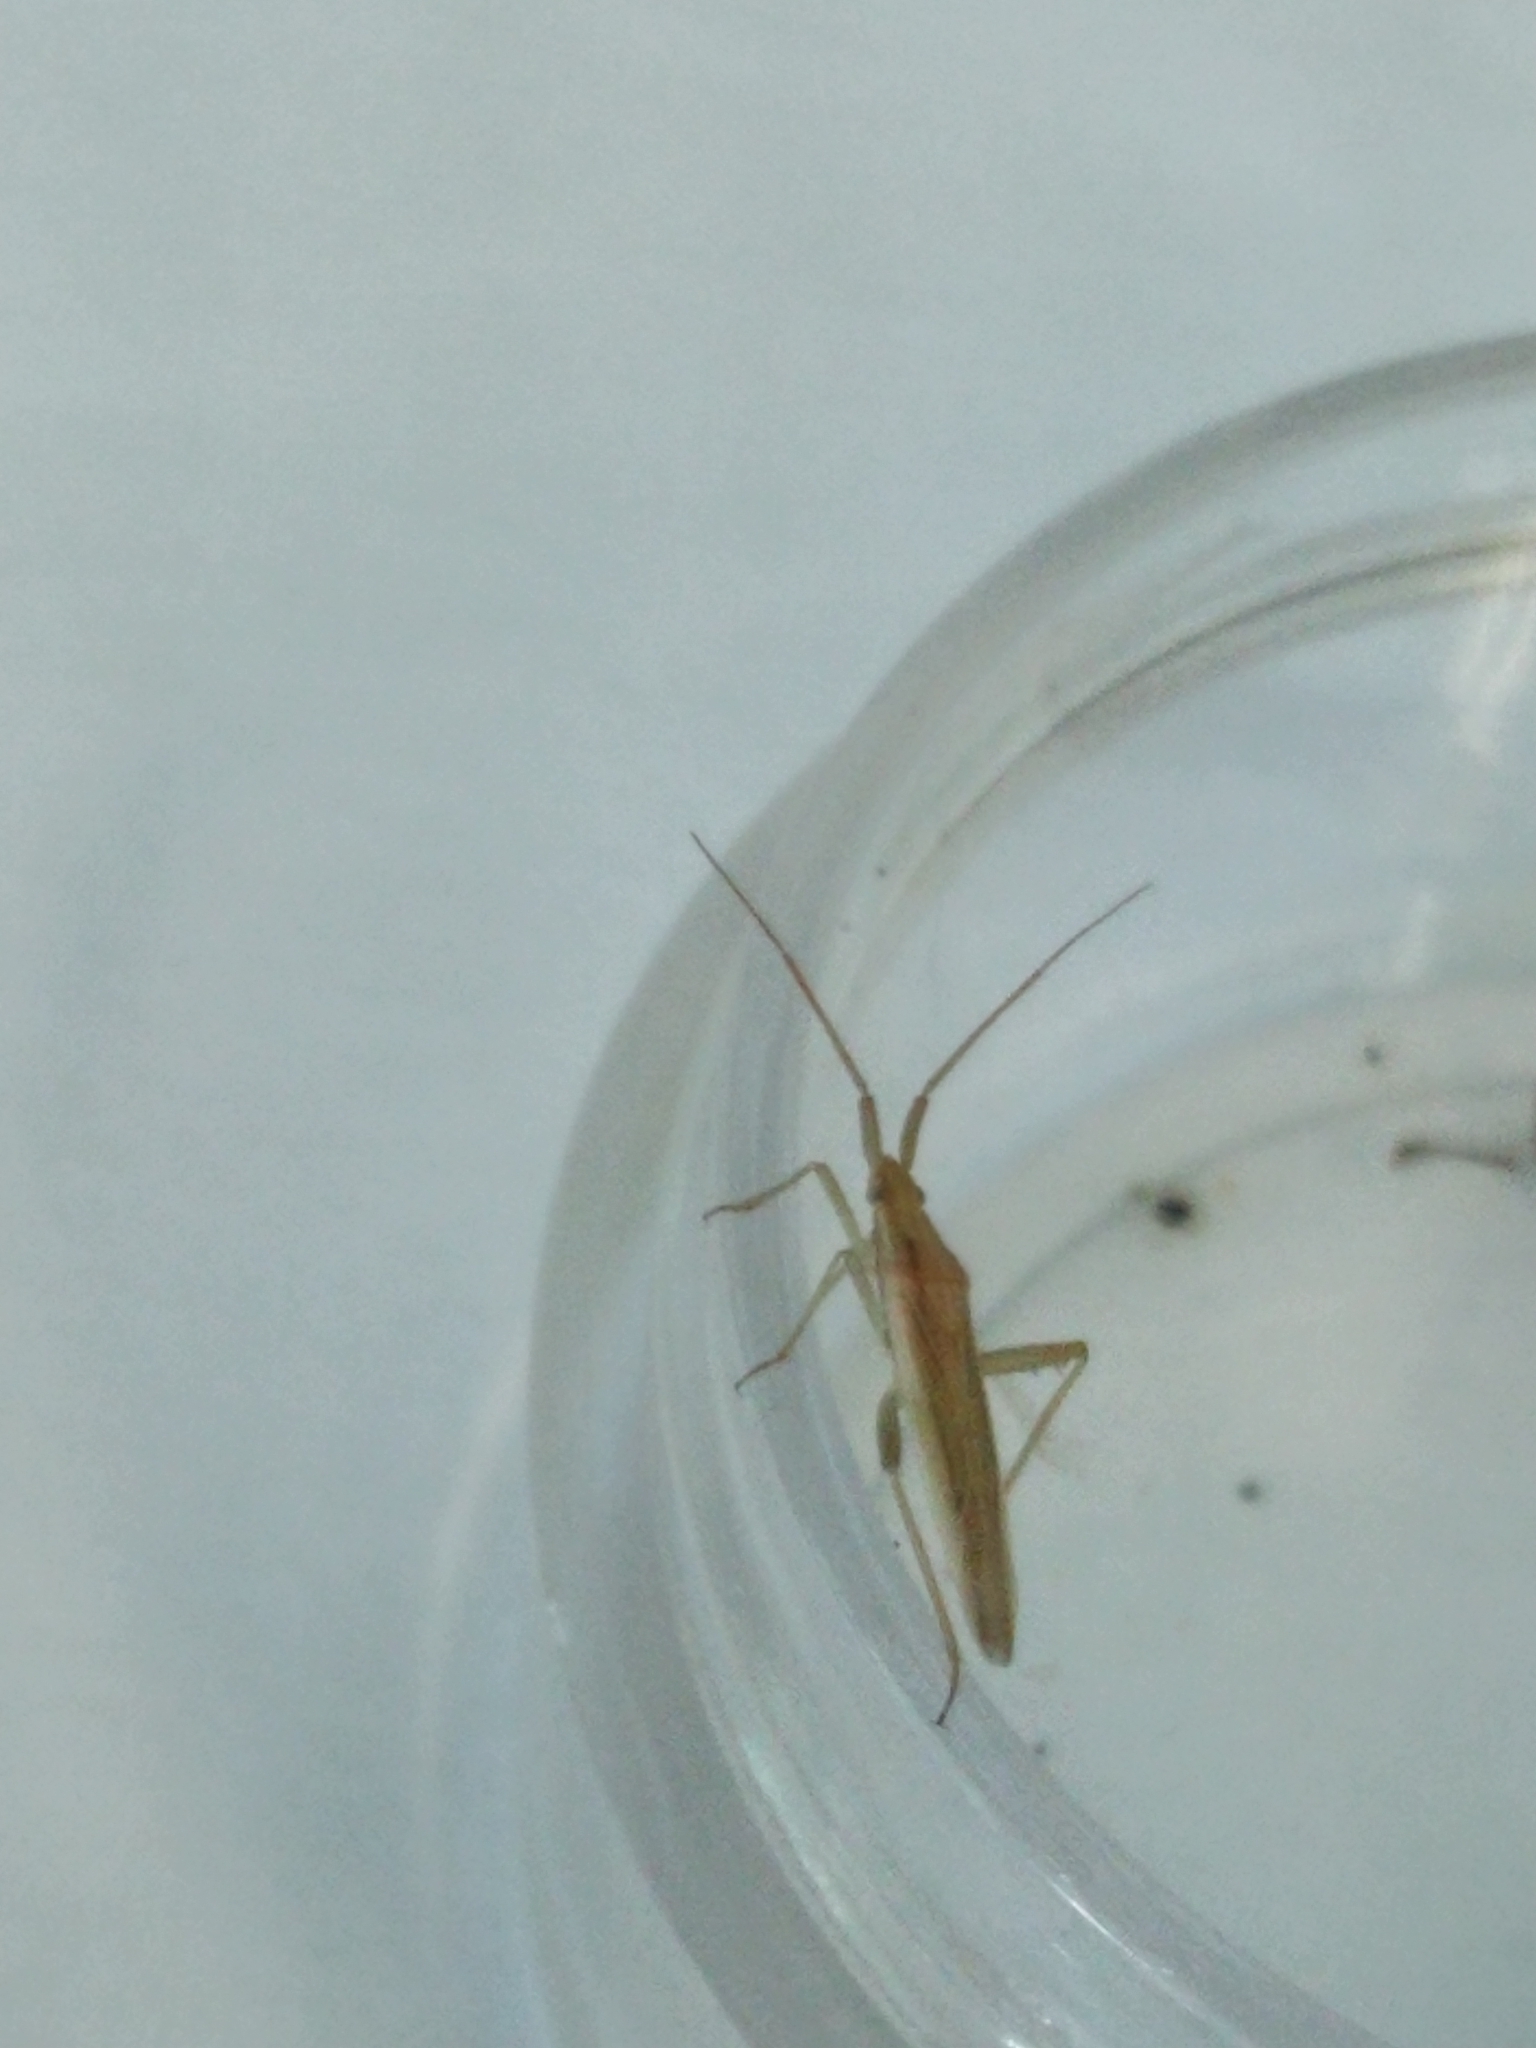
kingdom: Animalia
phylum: Arthropoda
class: Insecta
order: Hemiptera
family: Miridae
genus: Stenodema
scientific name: Stenodema trispinosa
